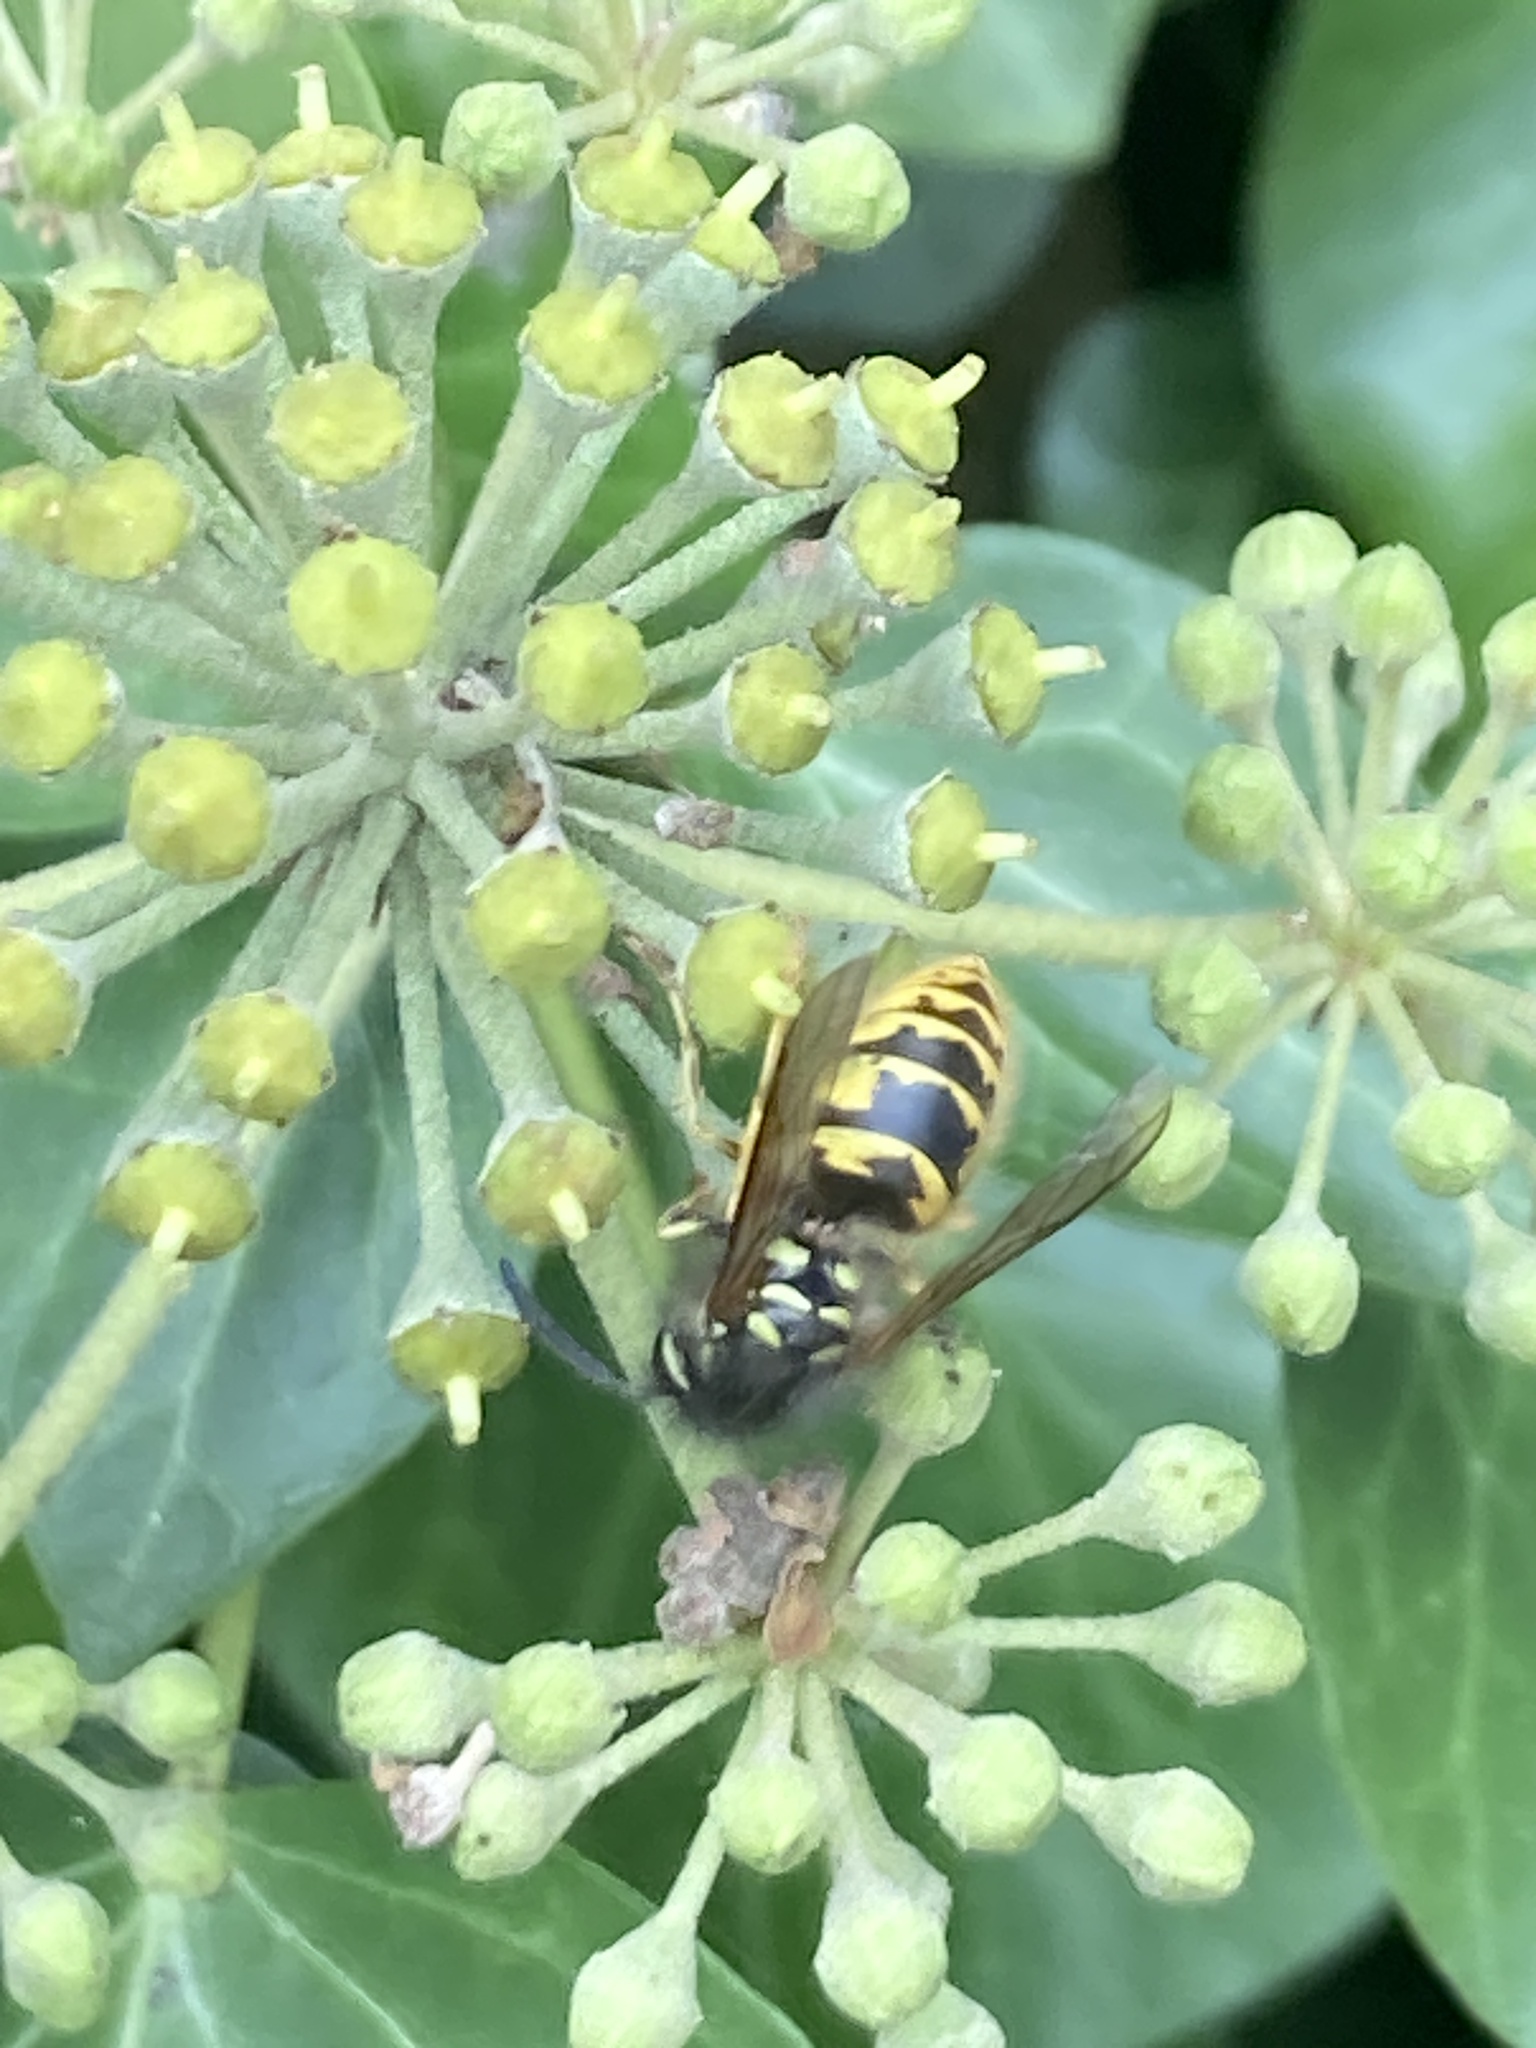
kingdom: Animalia
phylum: Arthropoda
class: Insecta
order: Hymenoptera
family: Vespidae
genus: Vespula
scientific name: Vespula vulgaris
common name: Common wasp
